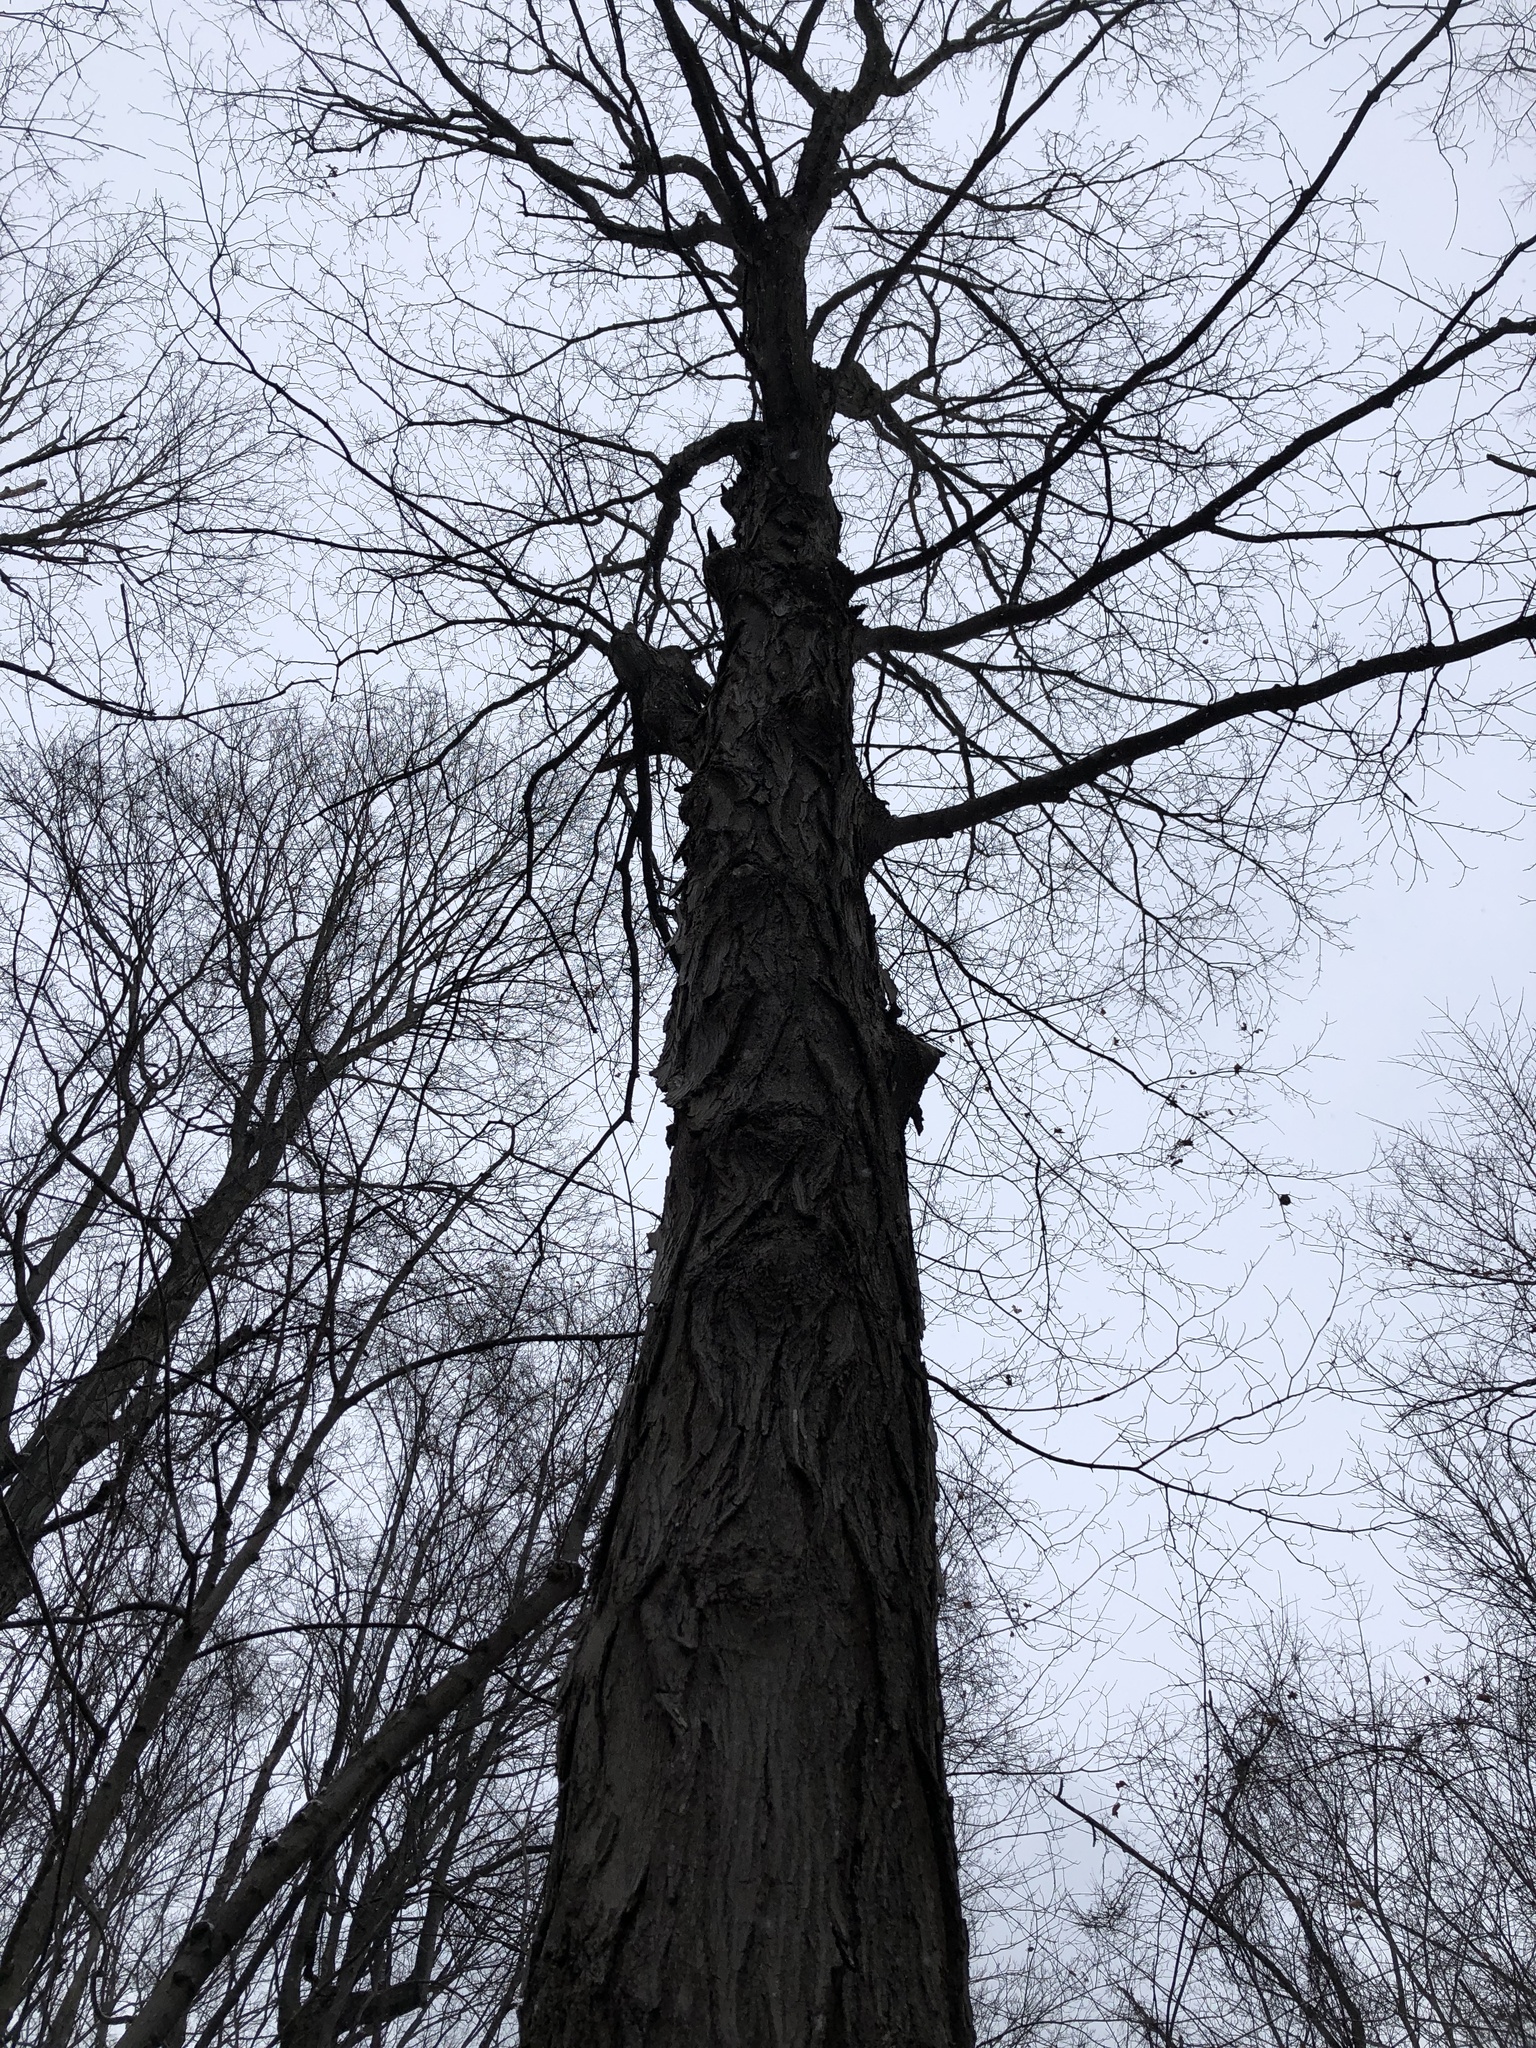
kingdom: Plantae
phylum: Tracheophyta
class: Magnoliopsida
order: Sapindales
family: Sapindaceae
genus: Acer
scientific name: Acer saccharum
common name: Sugar maple
